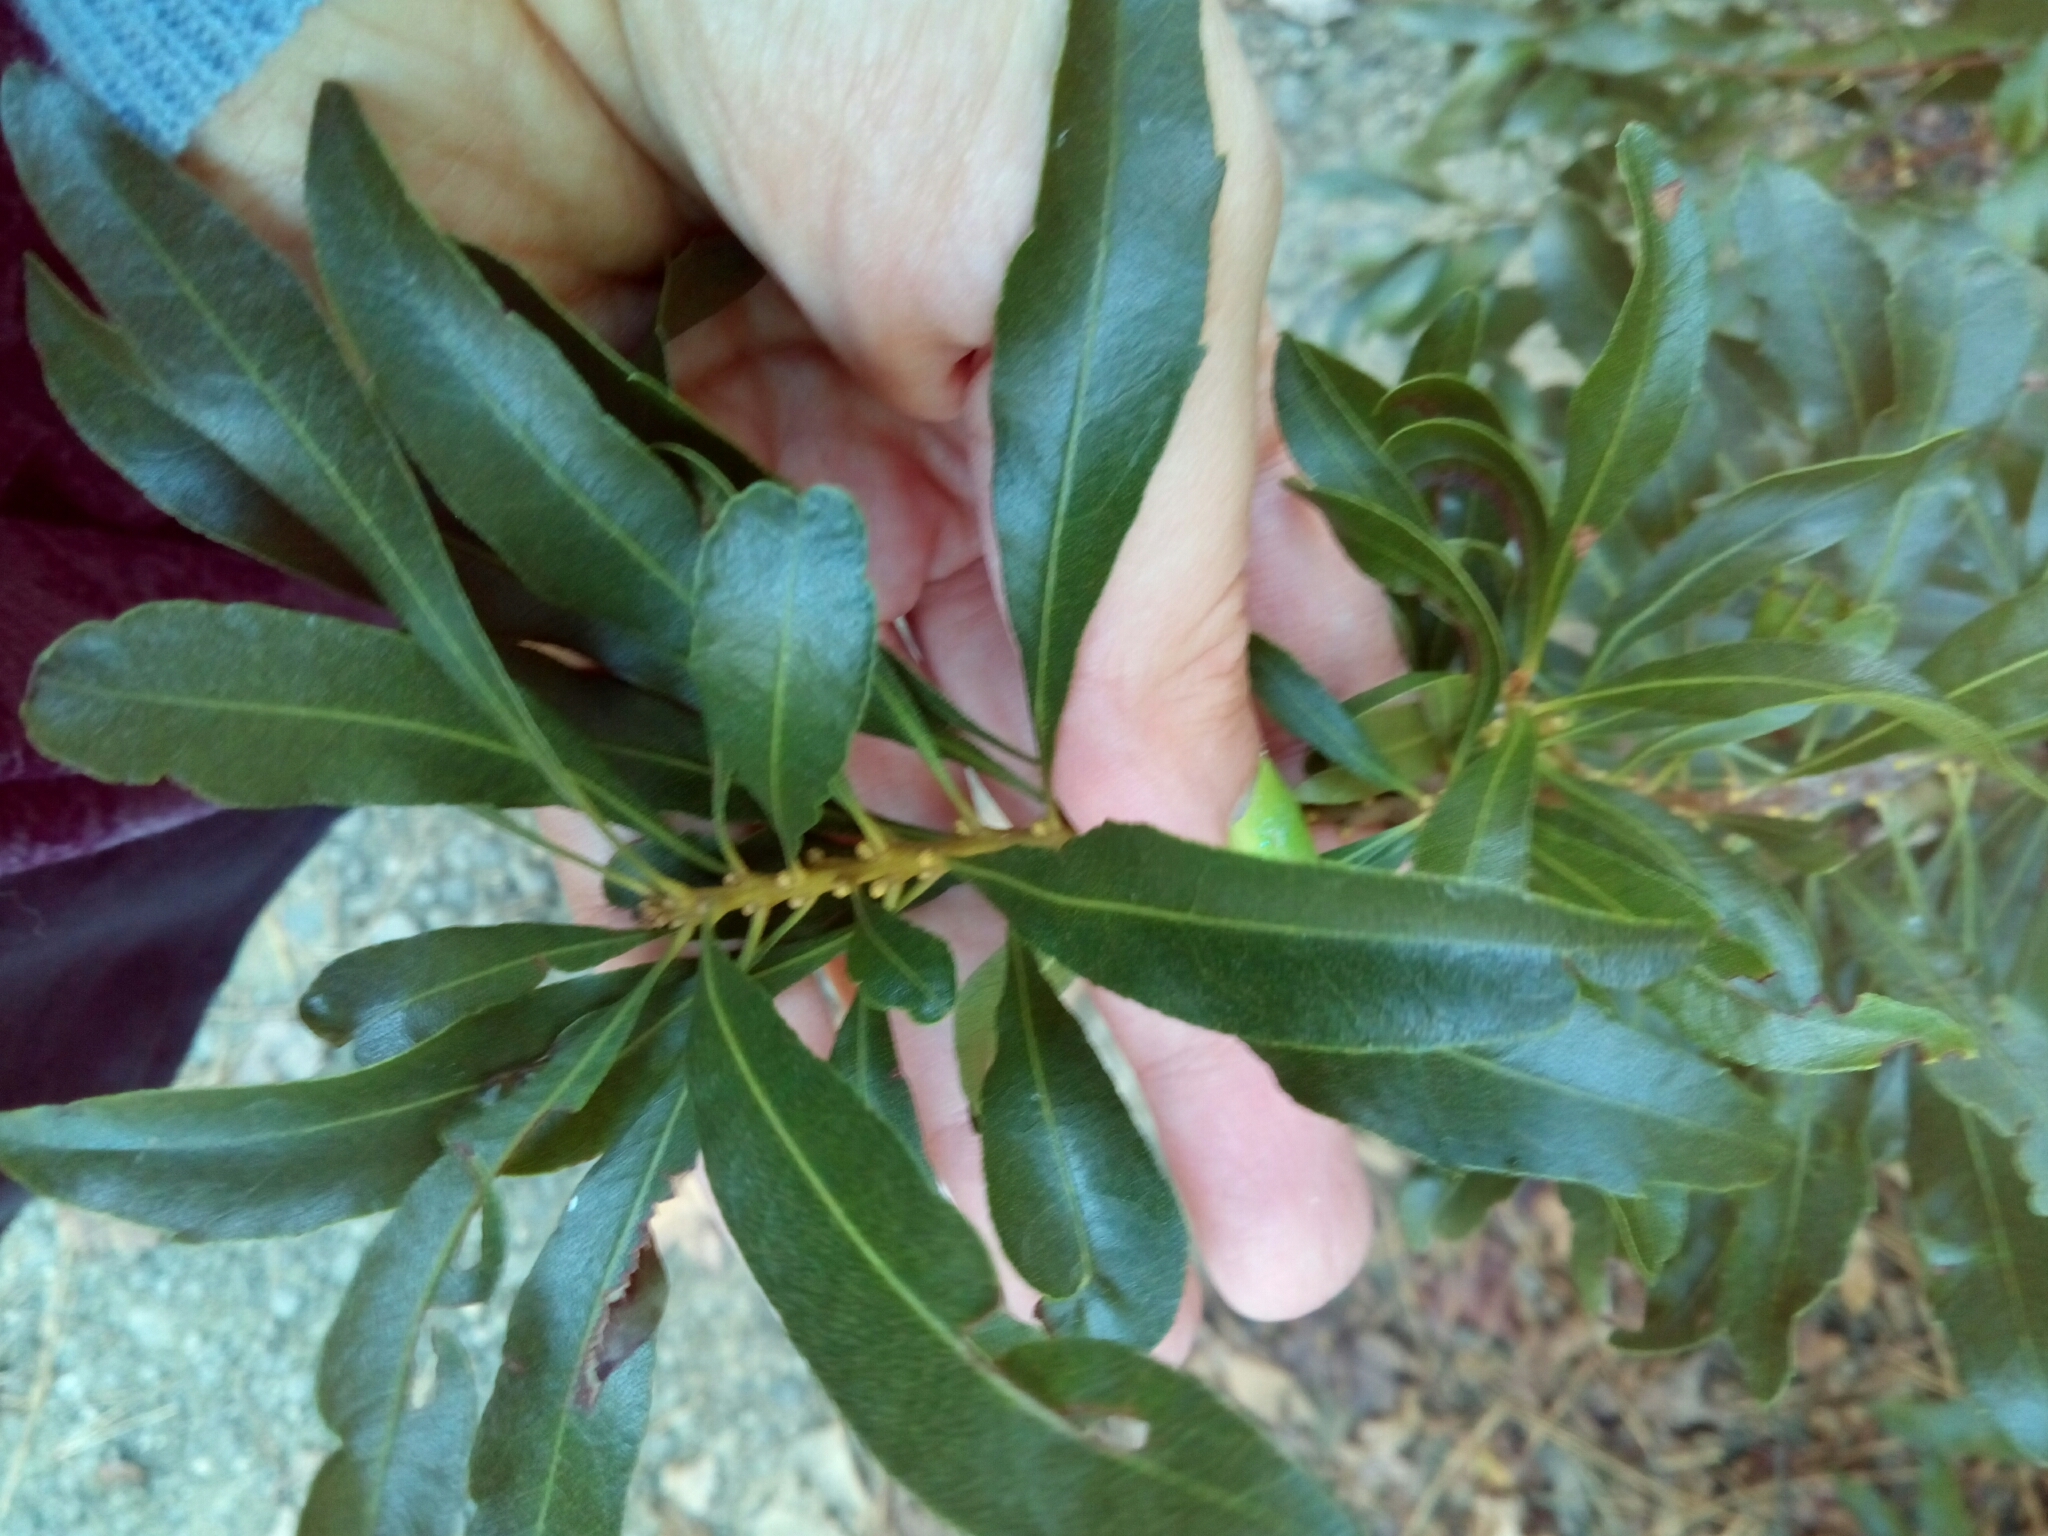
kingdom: Plantae
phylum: Tracheophyta
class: Magnoliopsida
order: Fagales
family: Myricaceae
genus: Morella
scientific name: Morella cerifera
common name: Wax myrtle
